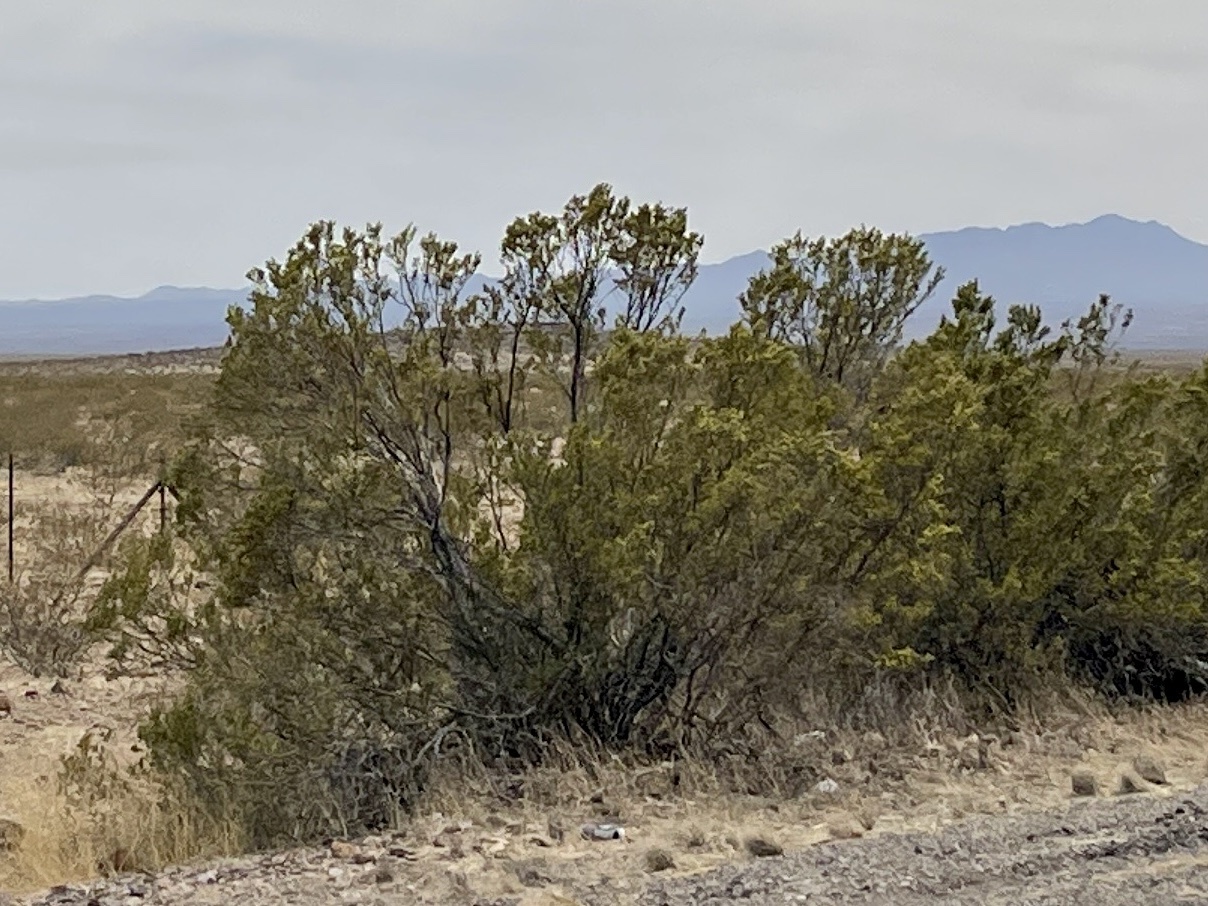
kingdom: Plantae
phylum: Tracheophyta
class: Magnoliopsida
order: Zygophyllales
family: Zygophyllaceae
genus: Larrea
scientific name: Larrea tridentata
